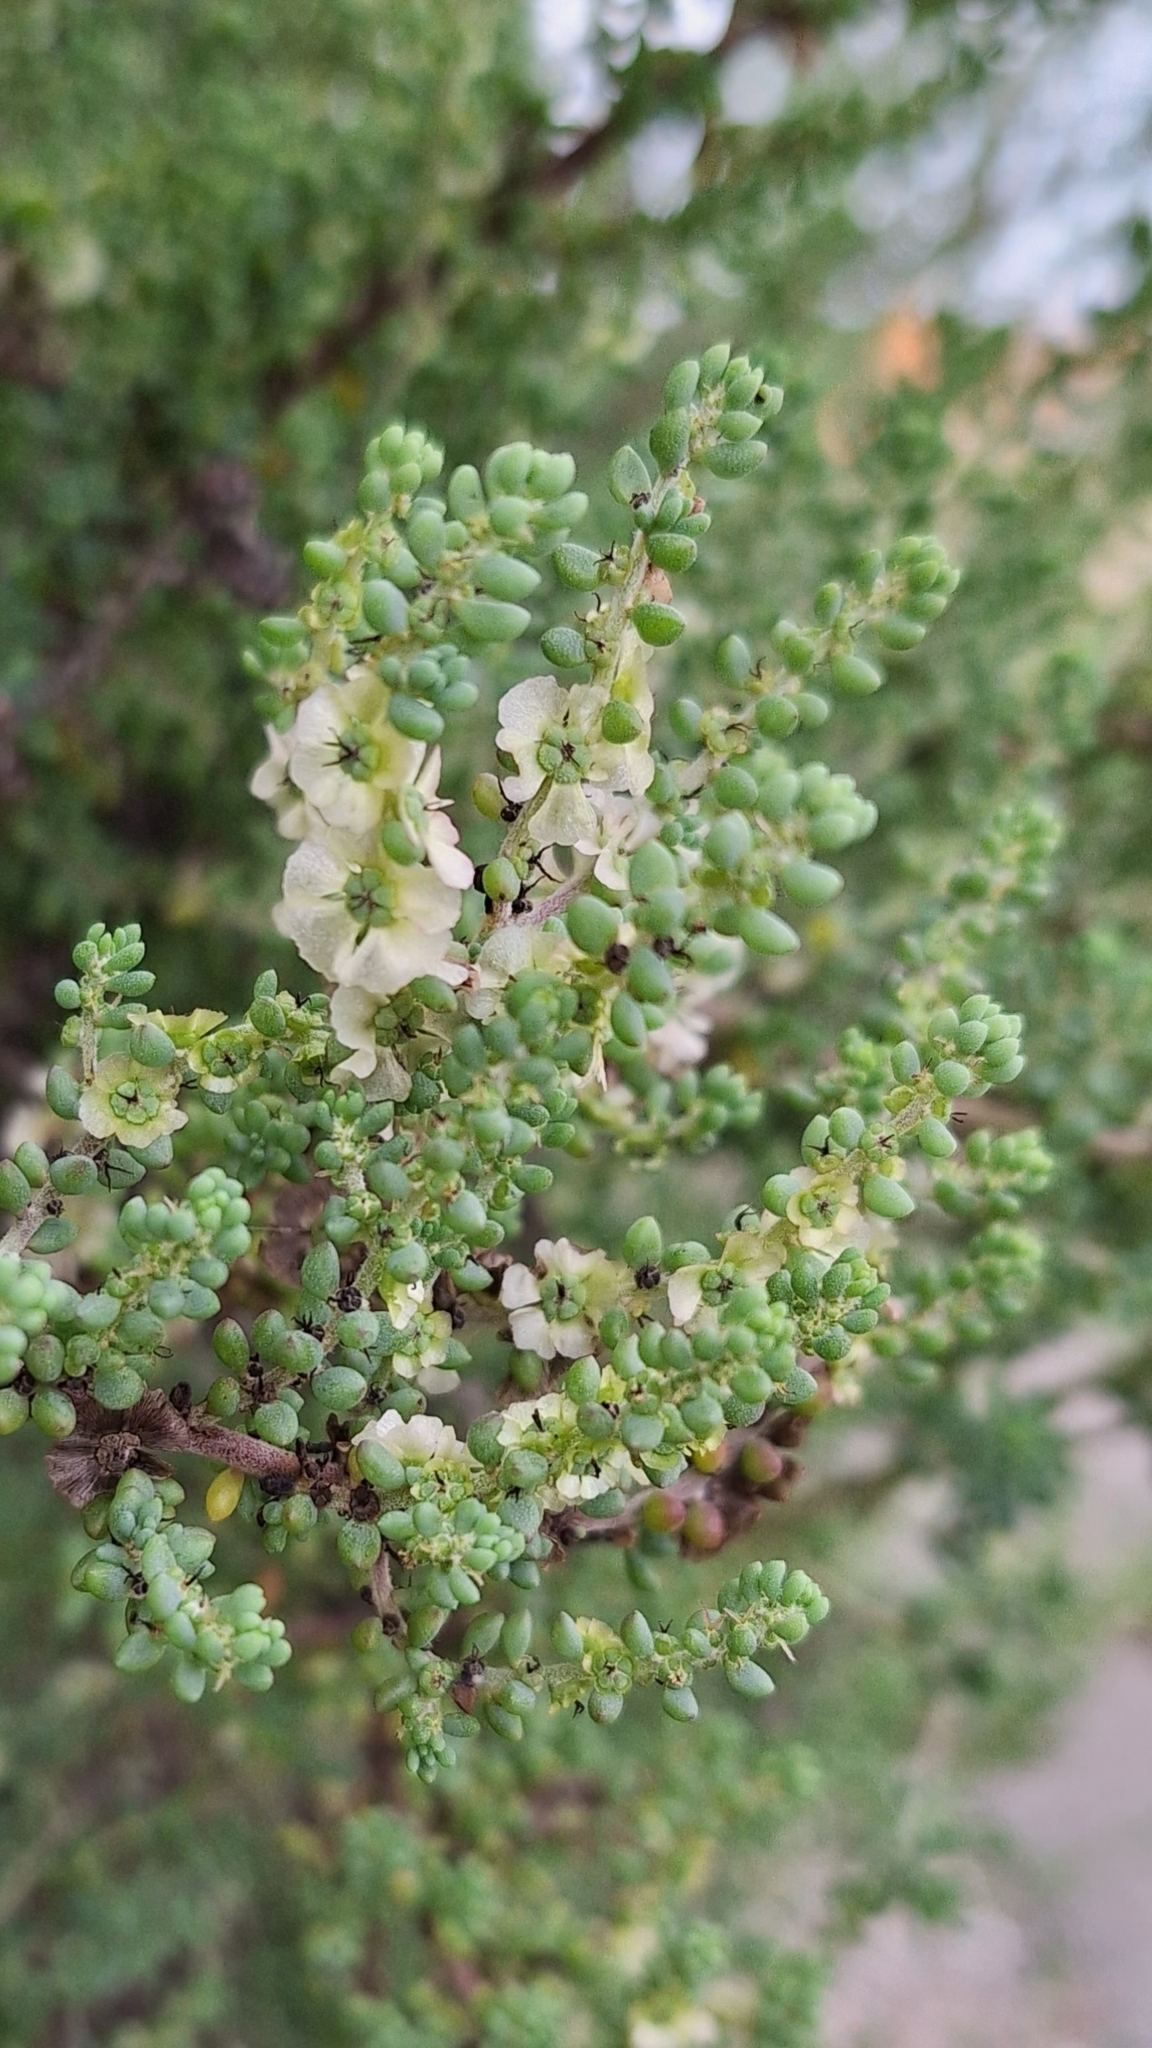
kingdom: Plantae
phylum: Tracheophyta
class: Magnoliopsida
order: Caryophyllales
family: Amaranthaceae
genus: Maireana
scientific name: Maireana brevifolia
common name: Eastern cottonbush
